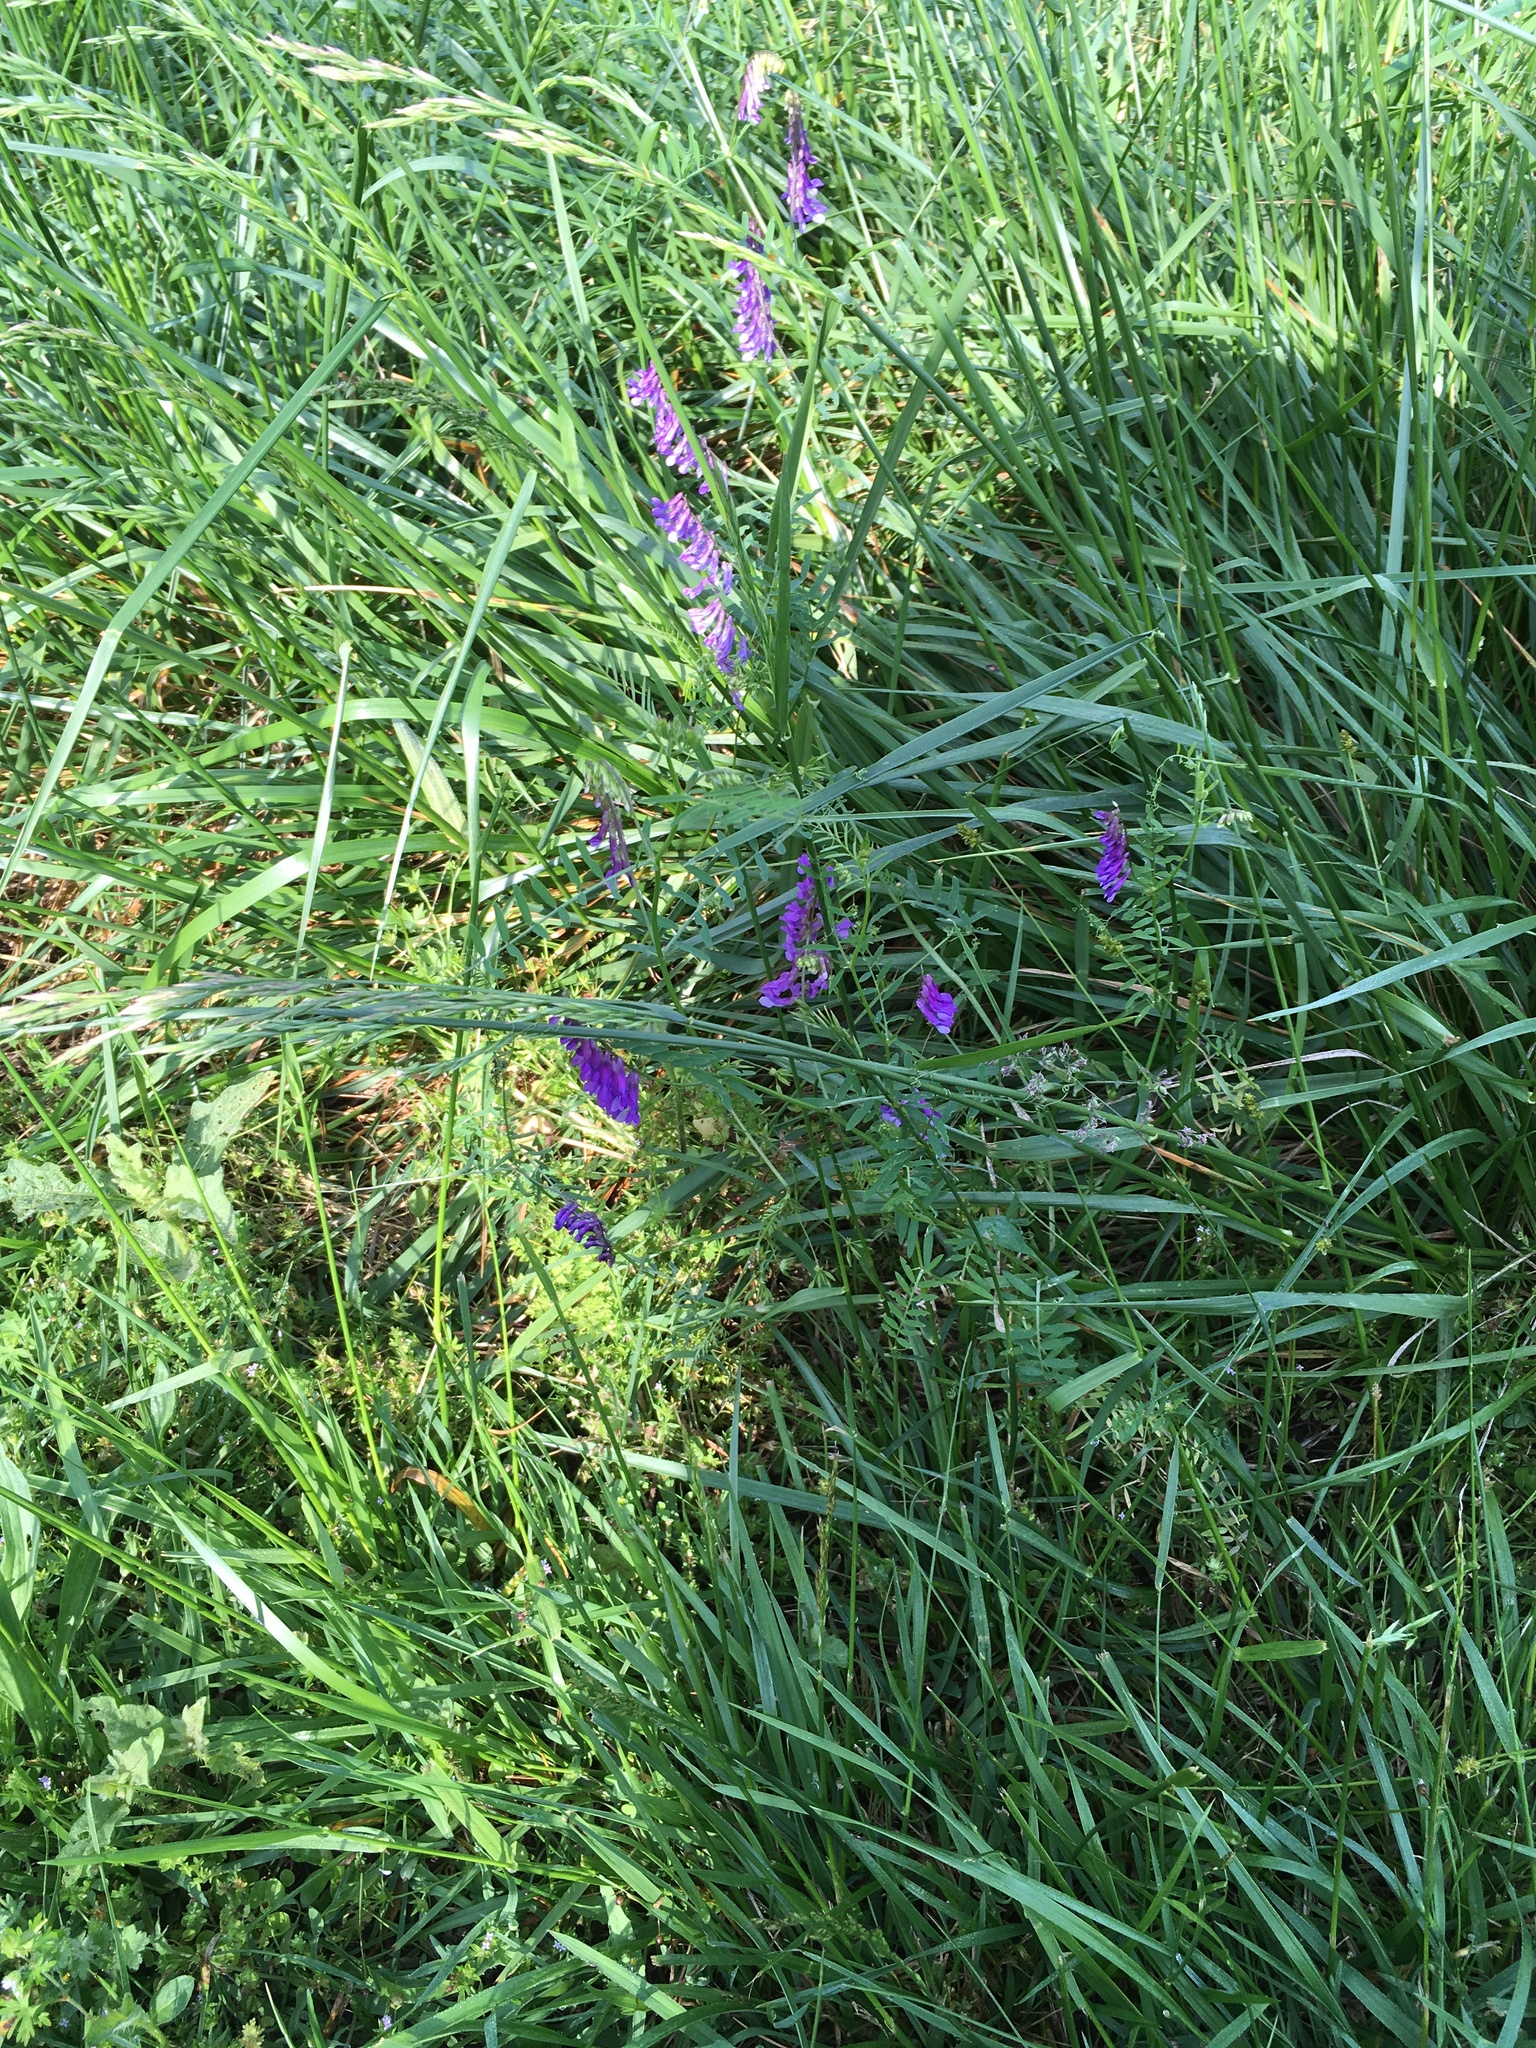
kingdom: Plantae
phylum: Tracheophyta
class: Magnoliopsida
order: Fabales
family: Fabaceae
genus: Vicia
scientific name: Vicia villosa
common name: Fodder vetch
